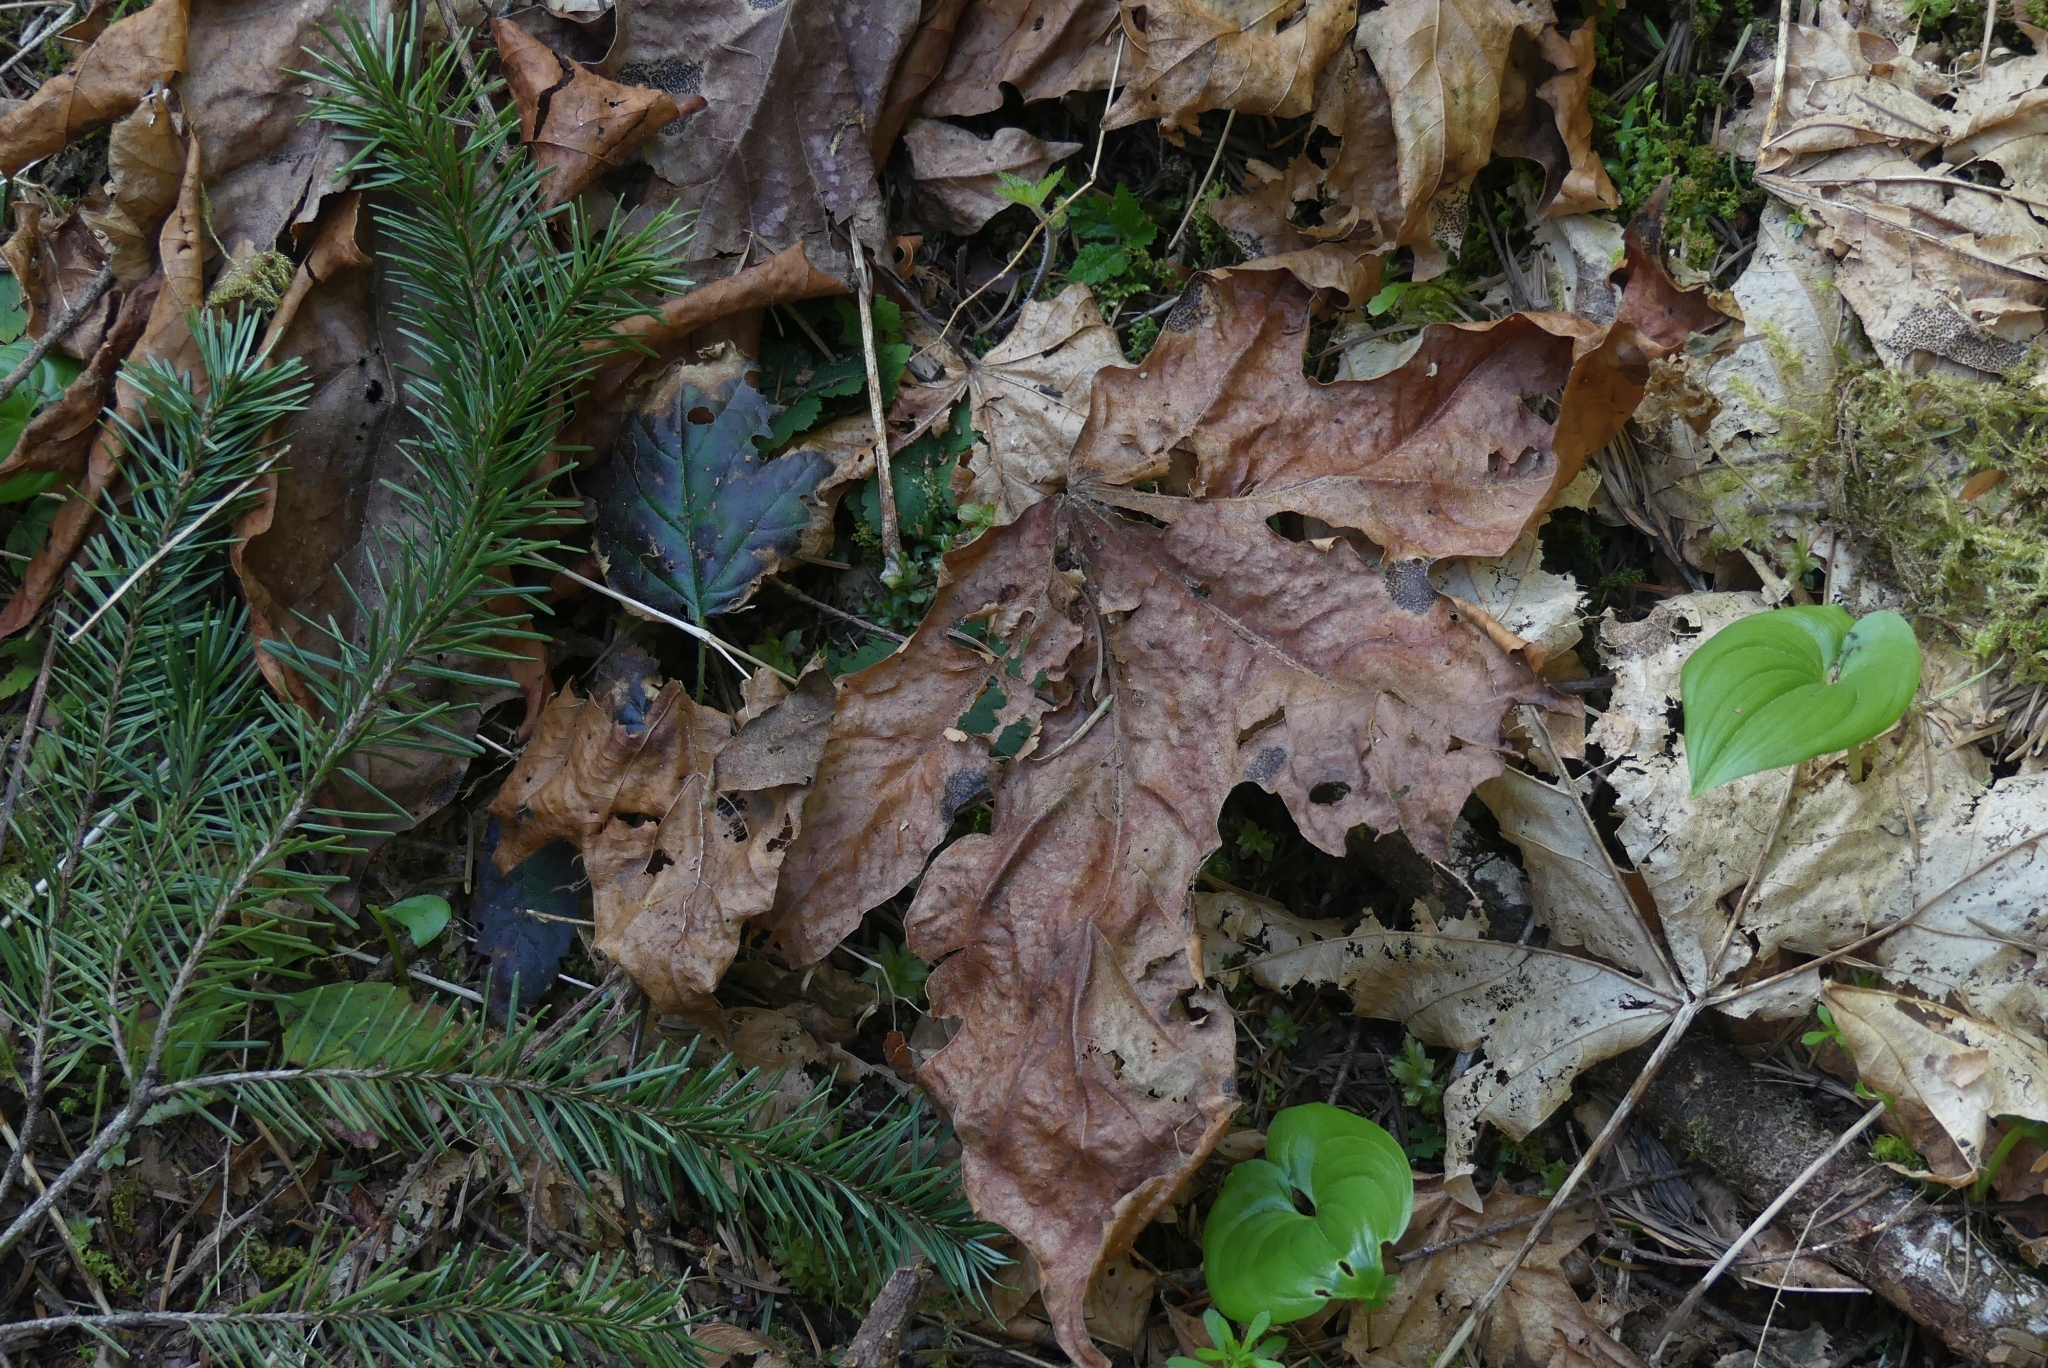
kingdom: Plantae
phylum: Tracheophyta
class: Magnoliopsida
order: Sapindales
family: Sapindaceae
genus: Acer
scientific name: Acer macrophyllum
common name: Oregon maple
